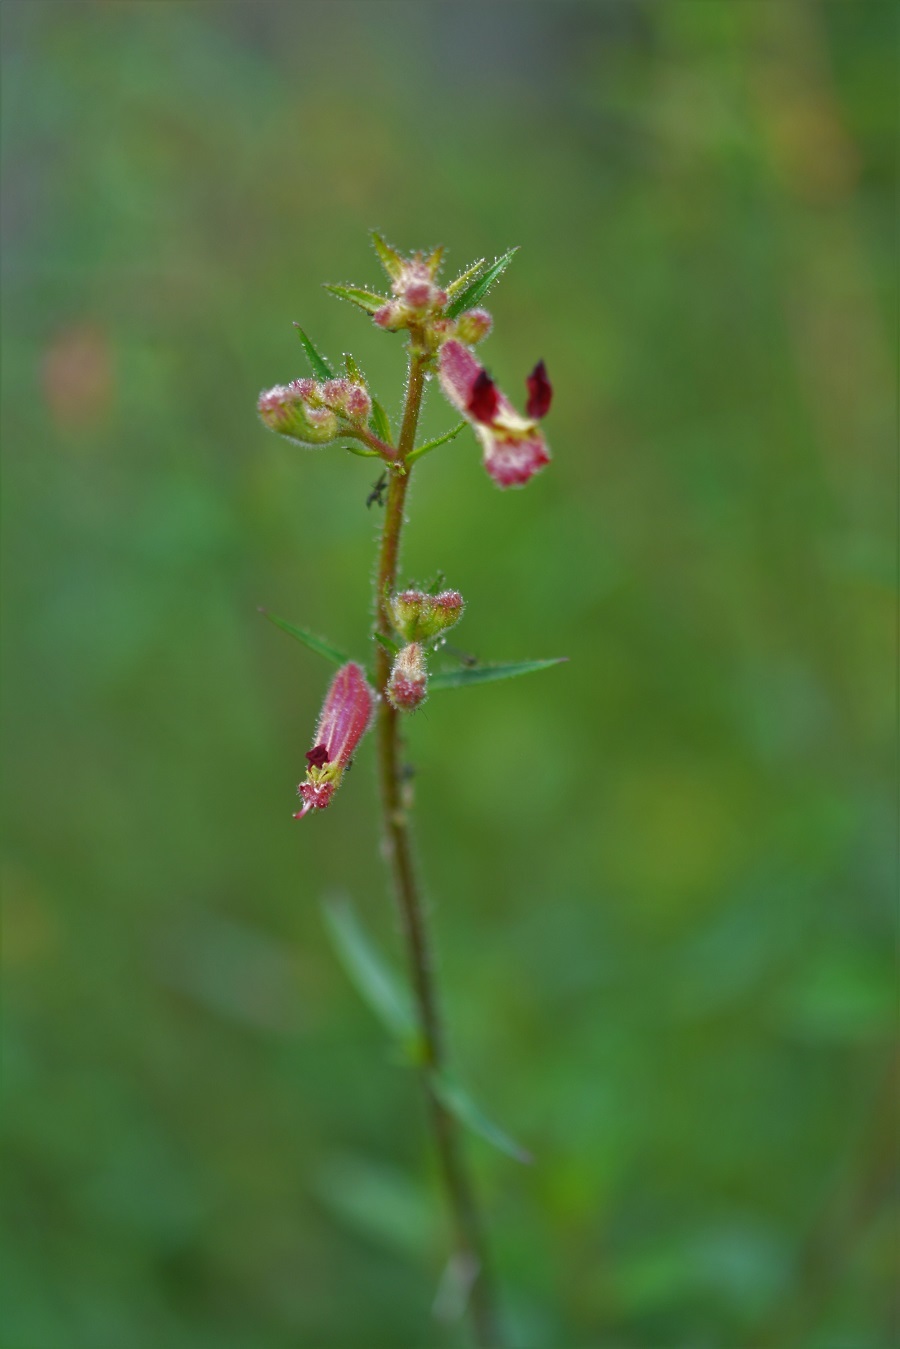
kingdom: Plantae
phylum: Tracheophyta
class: Magnoliopsida
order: Myrtales
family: Lythraceae
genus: Cuphea
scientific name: Cuphea hookeriana
